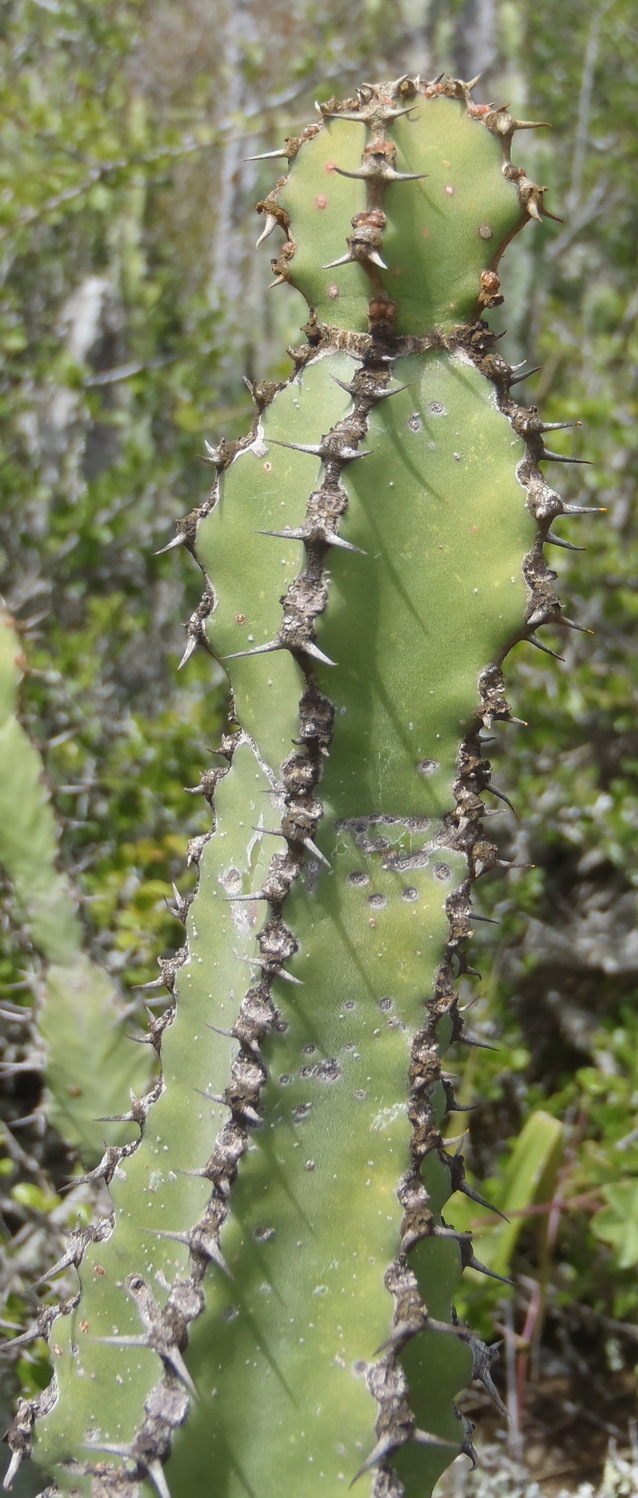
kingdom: Plantae
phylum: Tracheophyta
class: Magnoliopsida
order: Malpighiales
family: Euphorbiaceae
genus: Euphorbia
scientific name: Euphorbia radyeri
